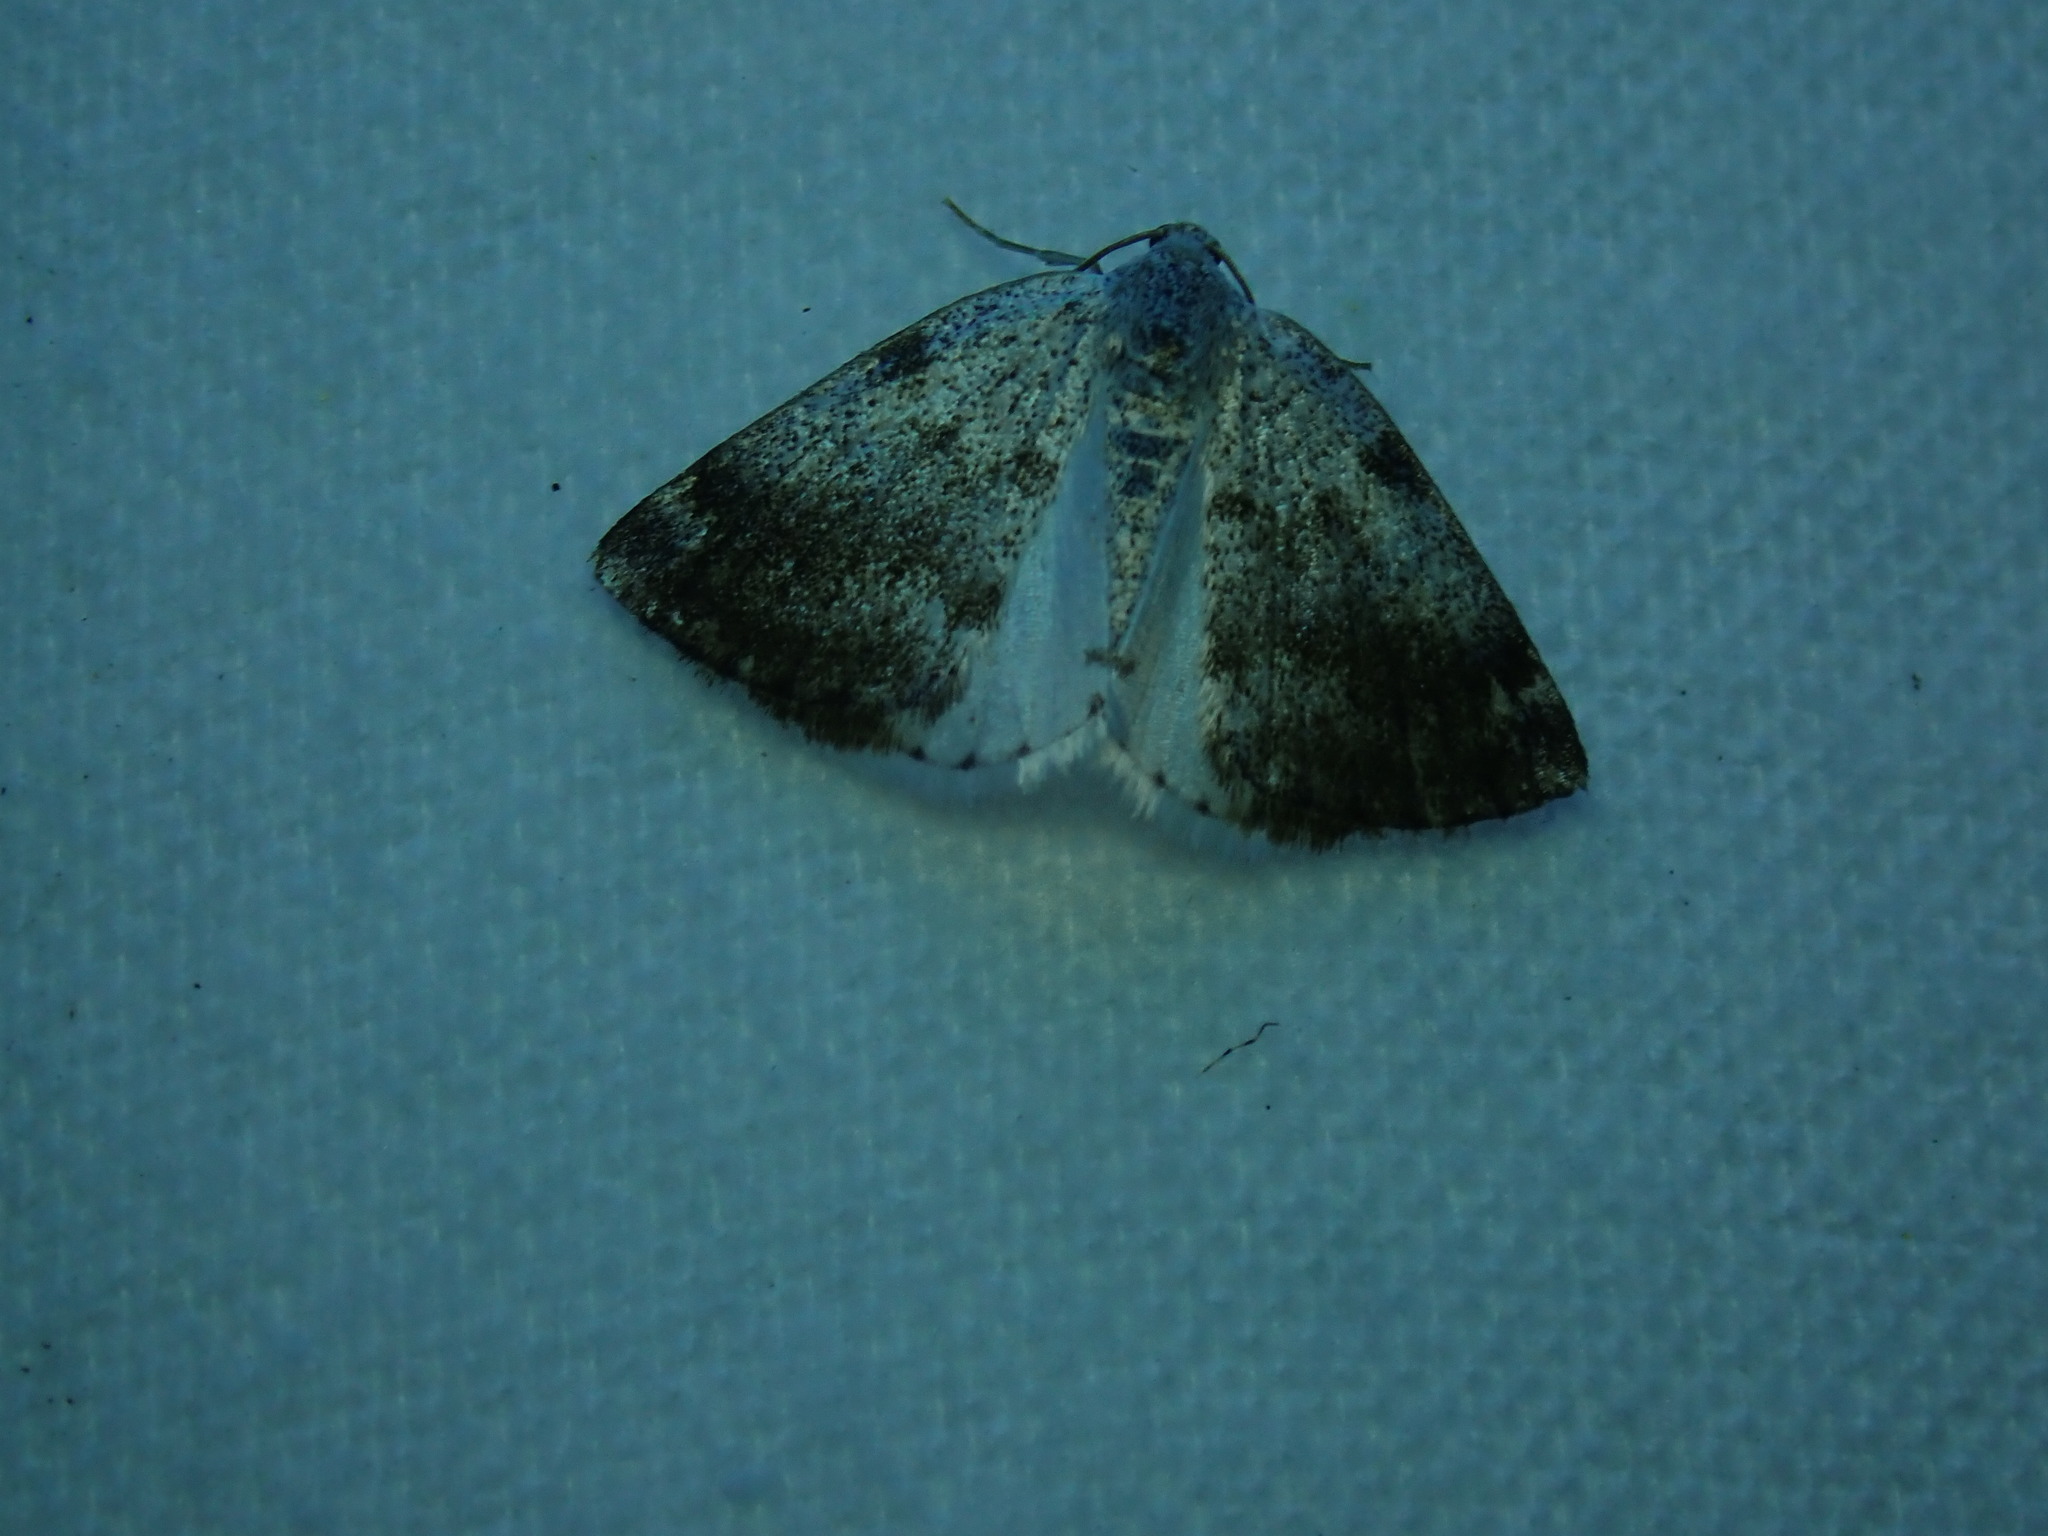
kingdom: Animalia
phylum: Arthropoda
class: Insecta
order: Lepidoptera
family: Geometridae
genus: Lomographa
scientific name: Lomographa semiclarata
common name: Bluish spring moth
